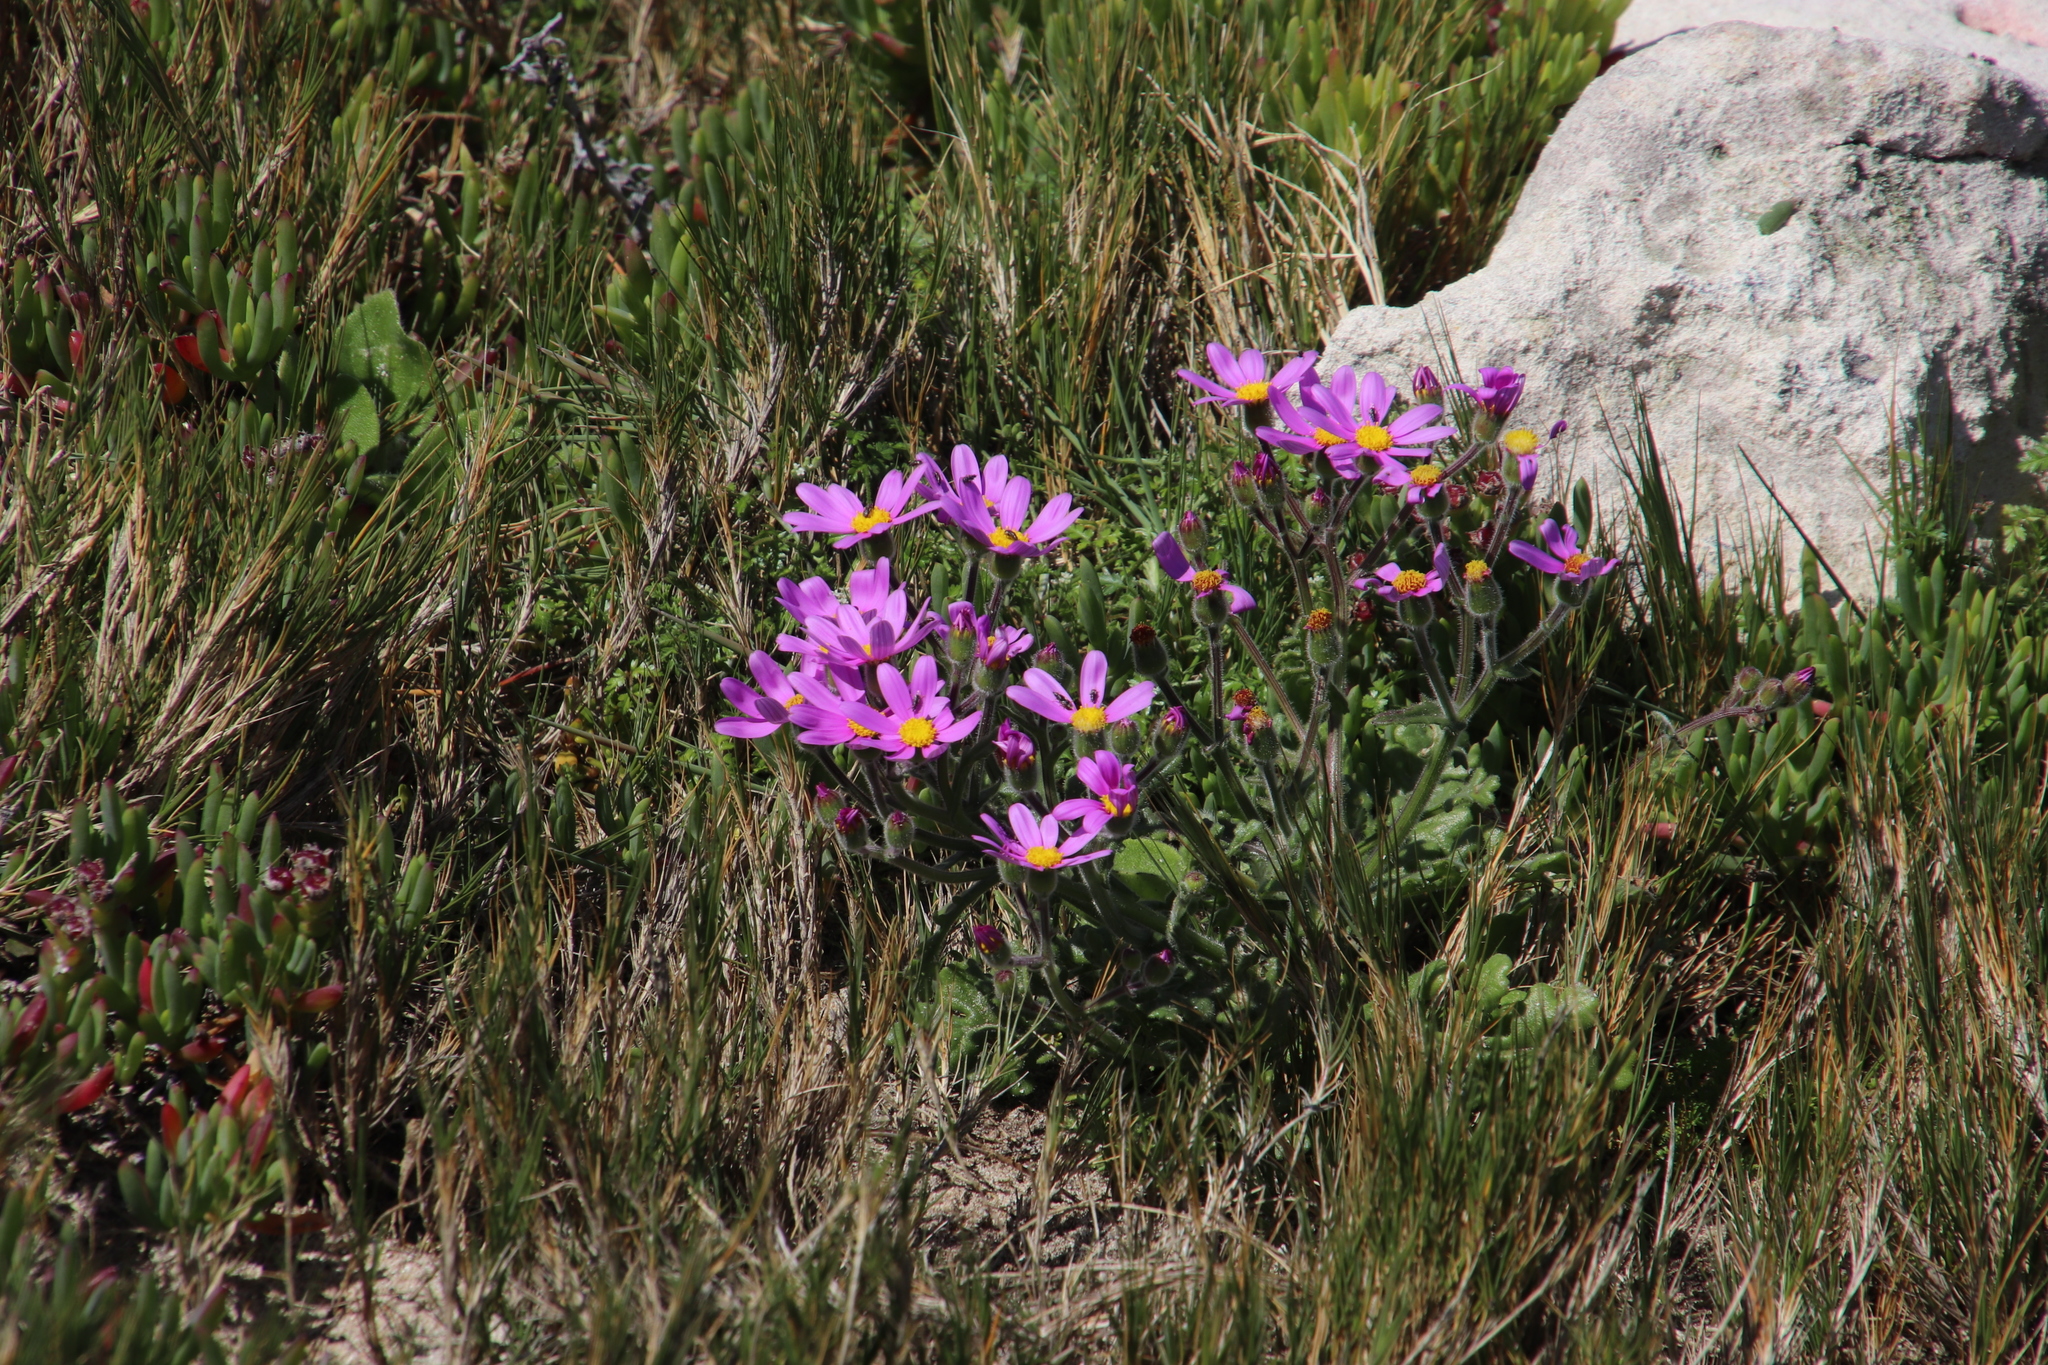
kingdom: Plantae
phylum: Tracheophyta
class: Magnoliopsida
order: Asterales
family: Asteraceae
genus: Senecio
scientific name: Senecio arenarius
